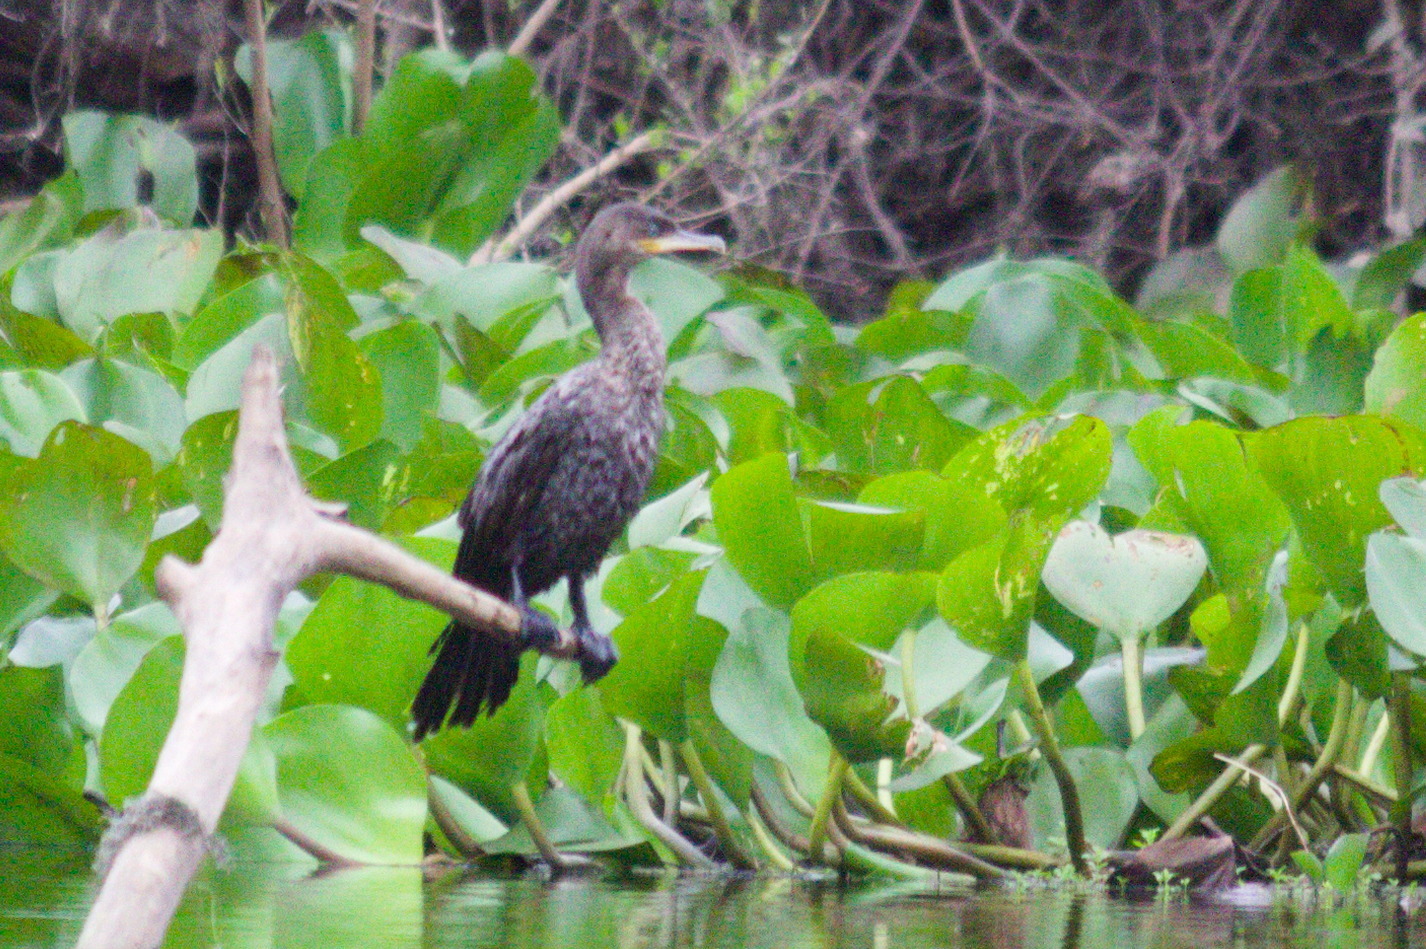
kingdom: Animalia
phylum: Chordata
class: Aves
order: Suliformes
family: Phalacrocoracidae
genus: Phalacrocorax
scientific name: Phalacrocorax brasilianus
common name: Neotropic cormorant
